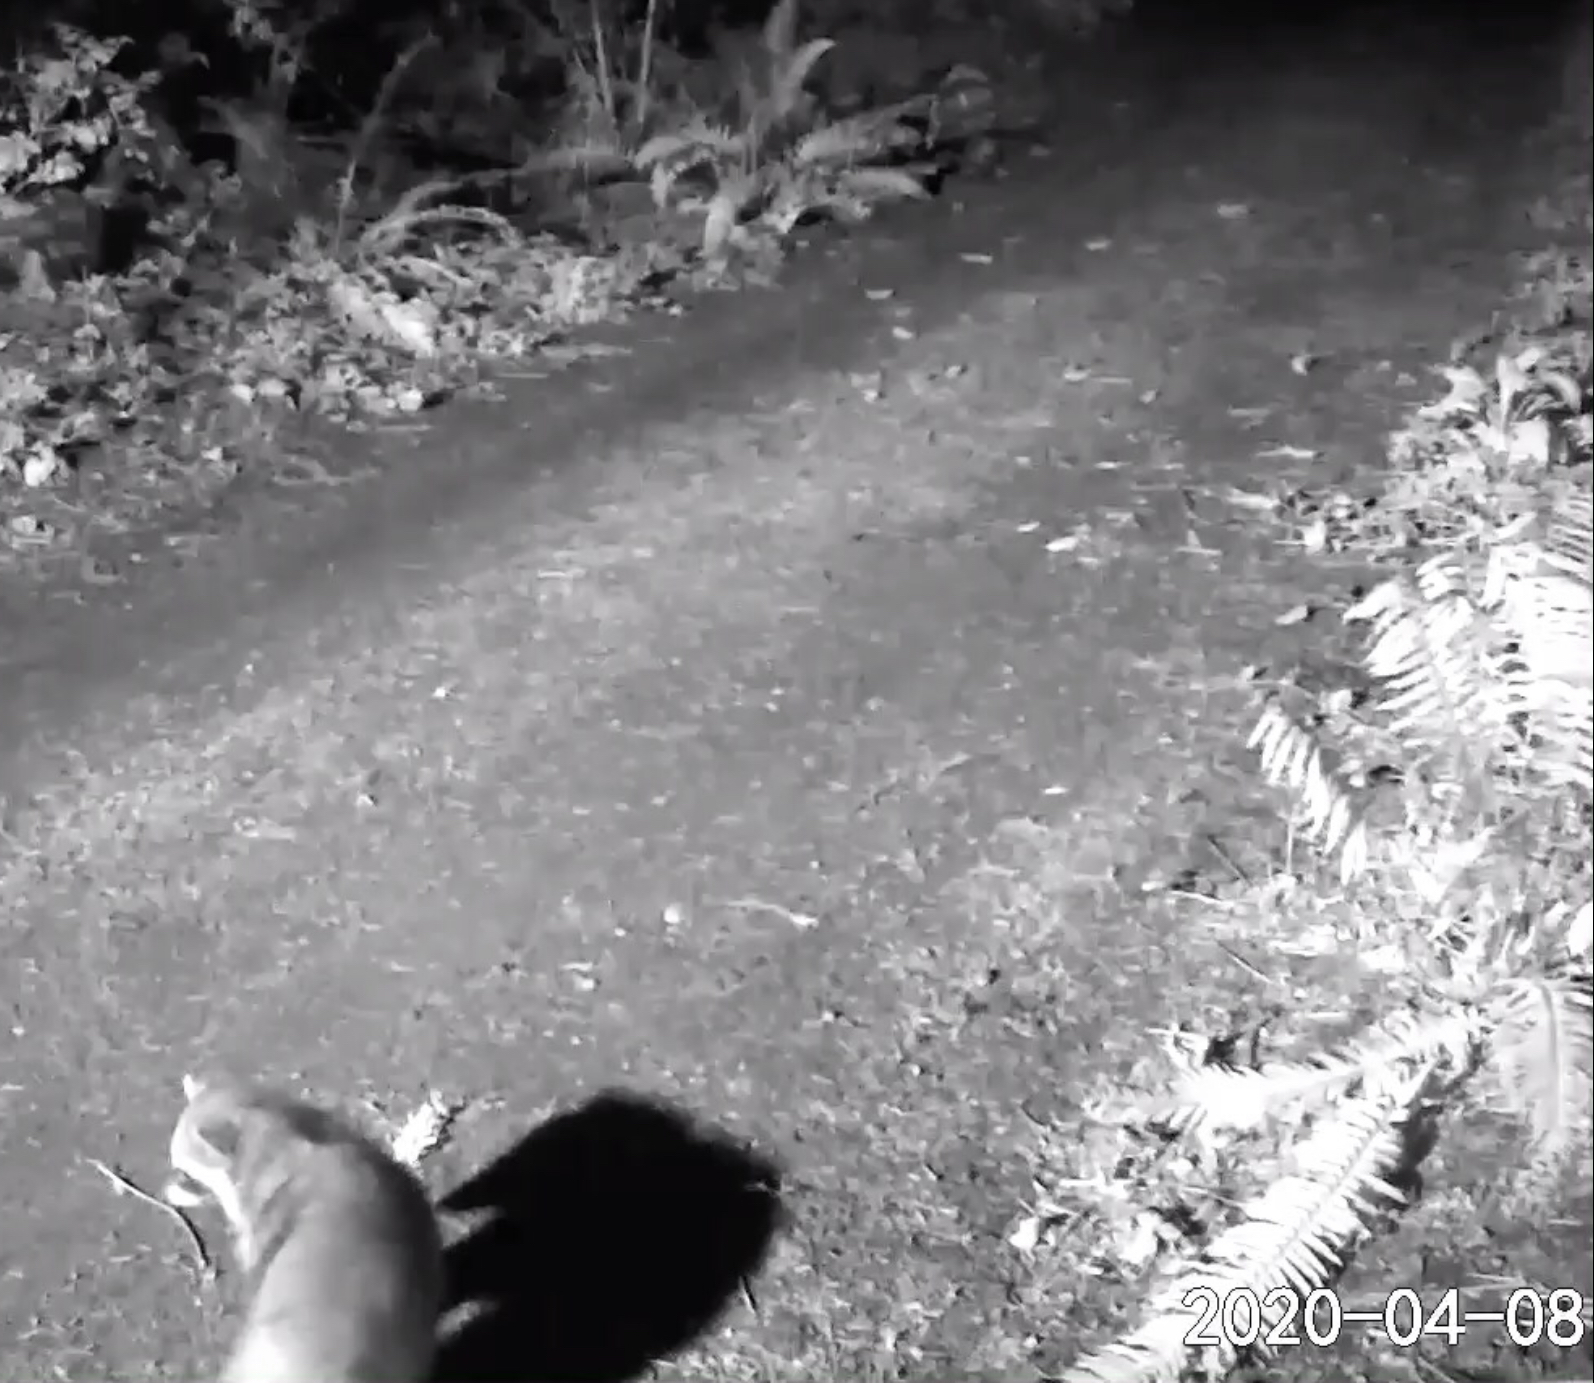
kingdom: Animalia
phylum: Chordata
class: Mammalia
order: Carnivora
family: Procyonidae
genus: Procyon
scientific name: Procyon lotor
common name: Raccoon
